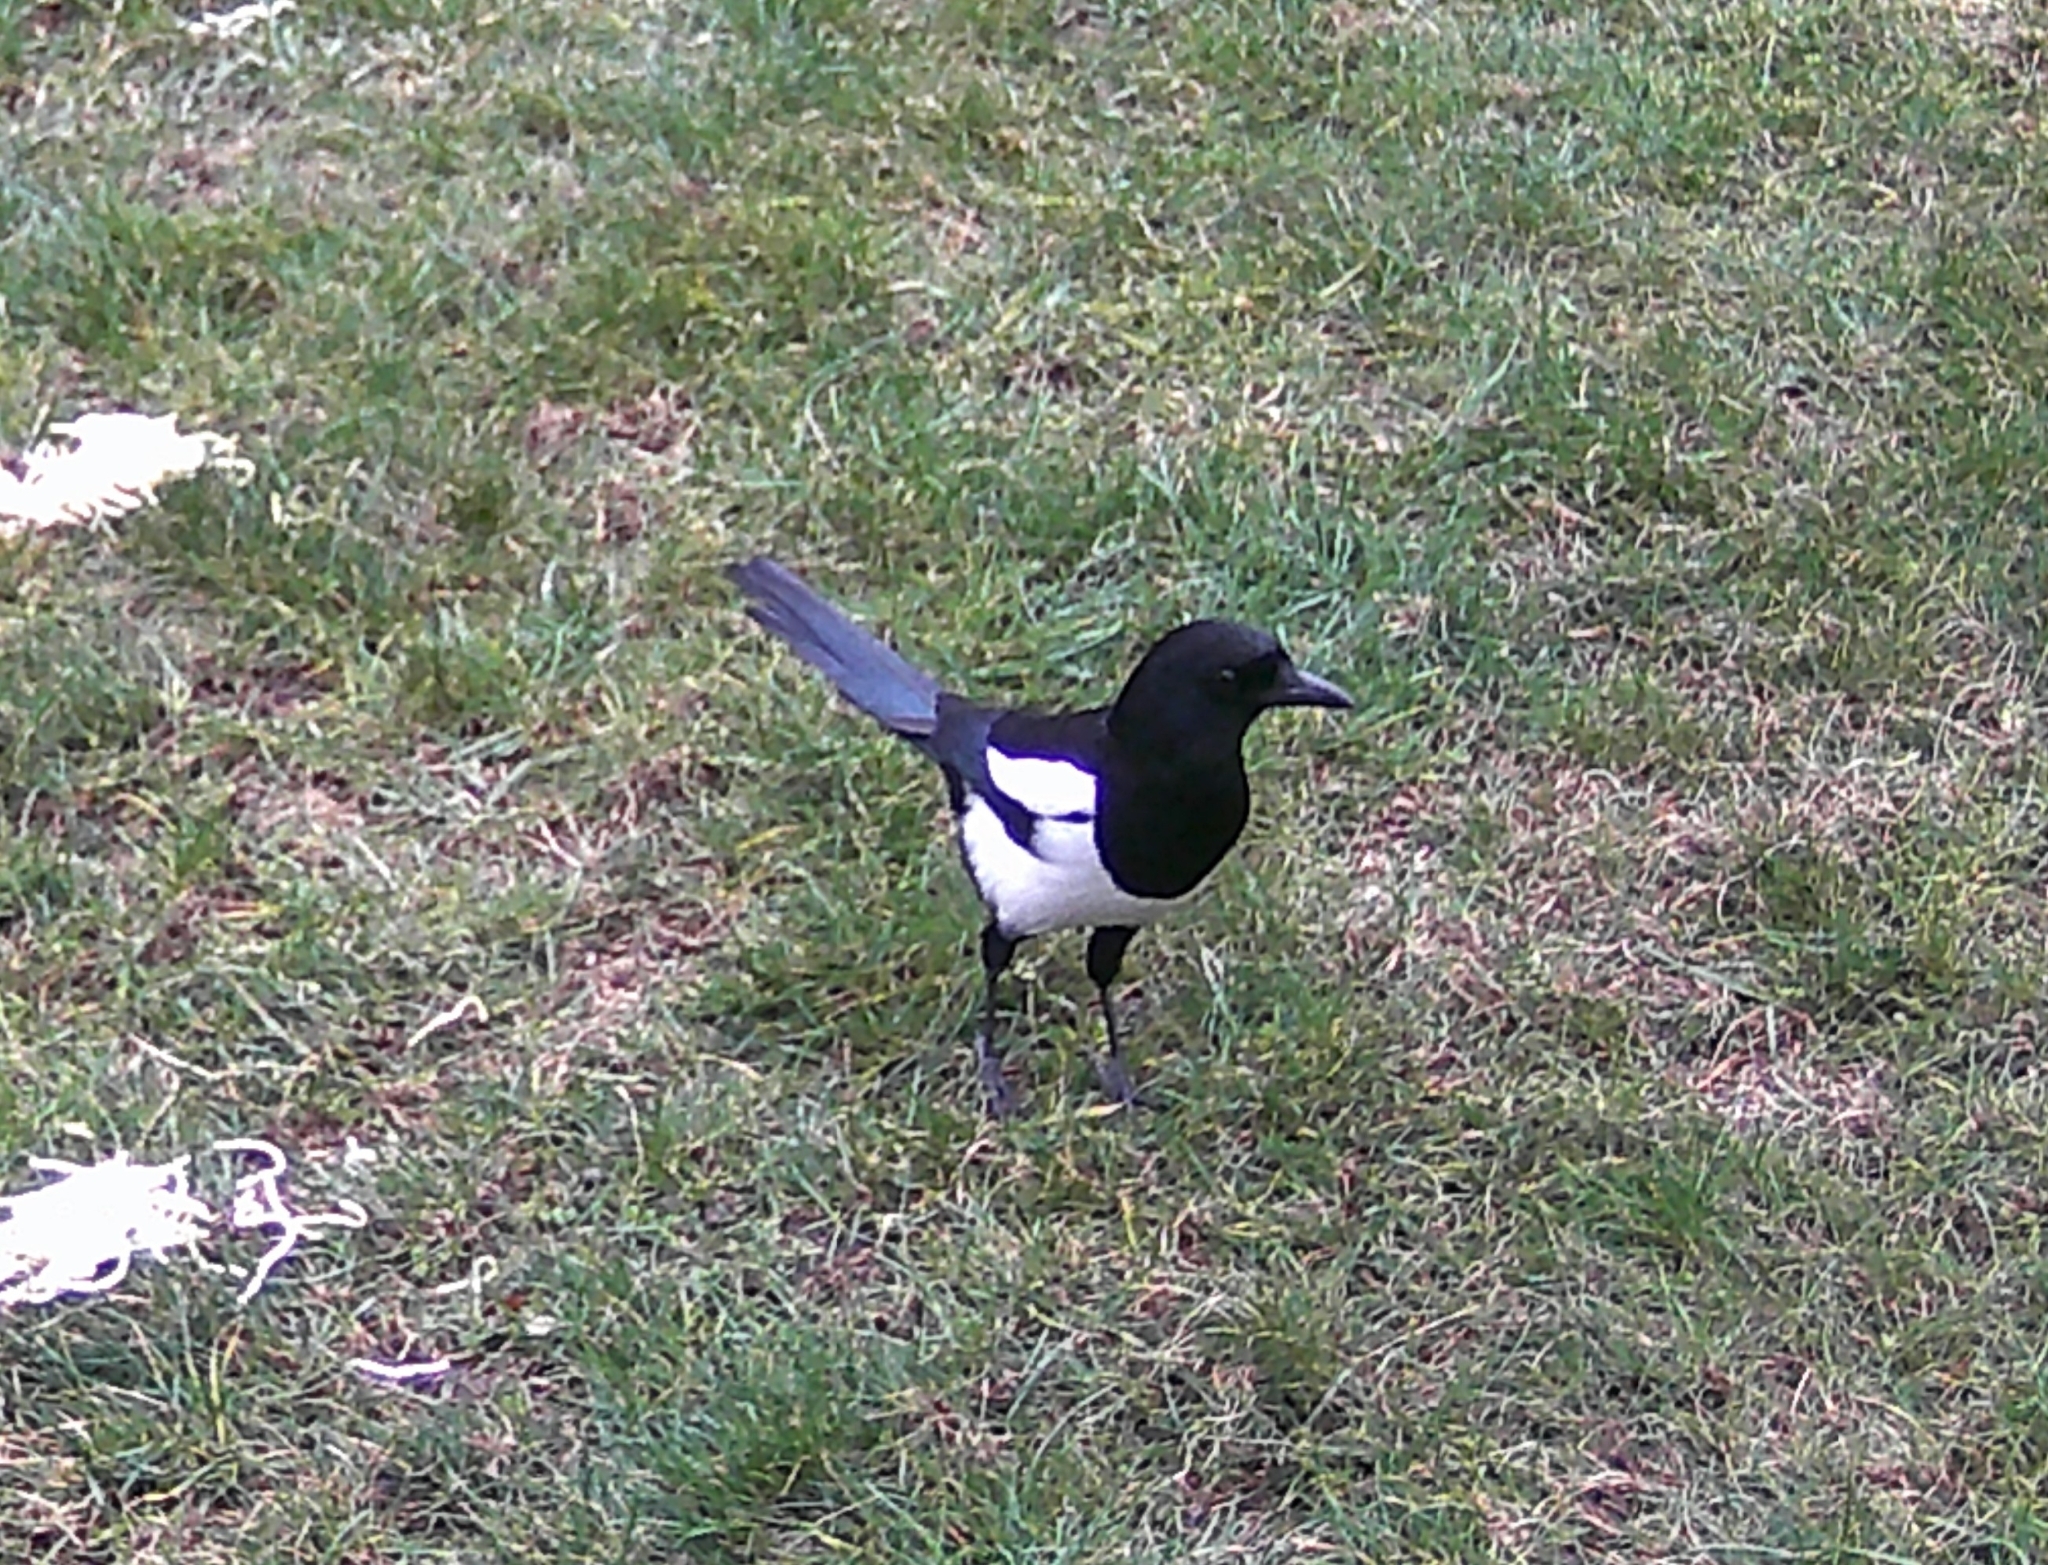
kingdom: Animalia
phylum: Chordata
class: Aves
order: Passeriformes
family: Corvidae
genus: Pica
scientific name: Pica pica
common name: Eurasian magpie
